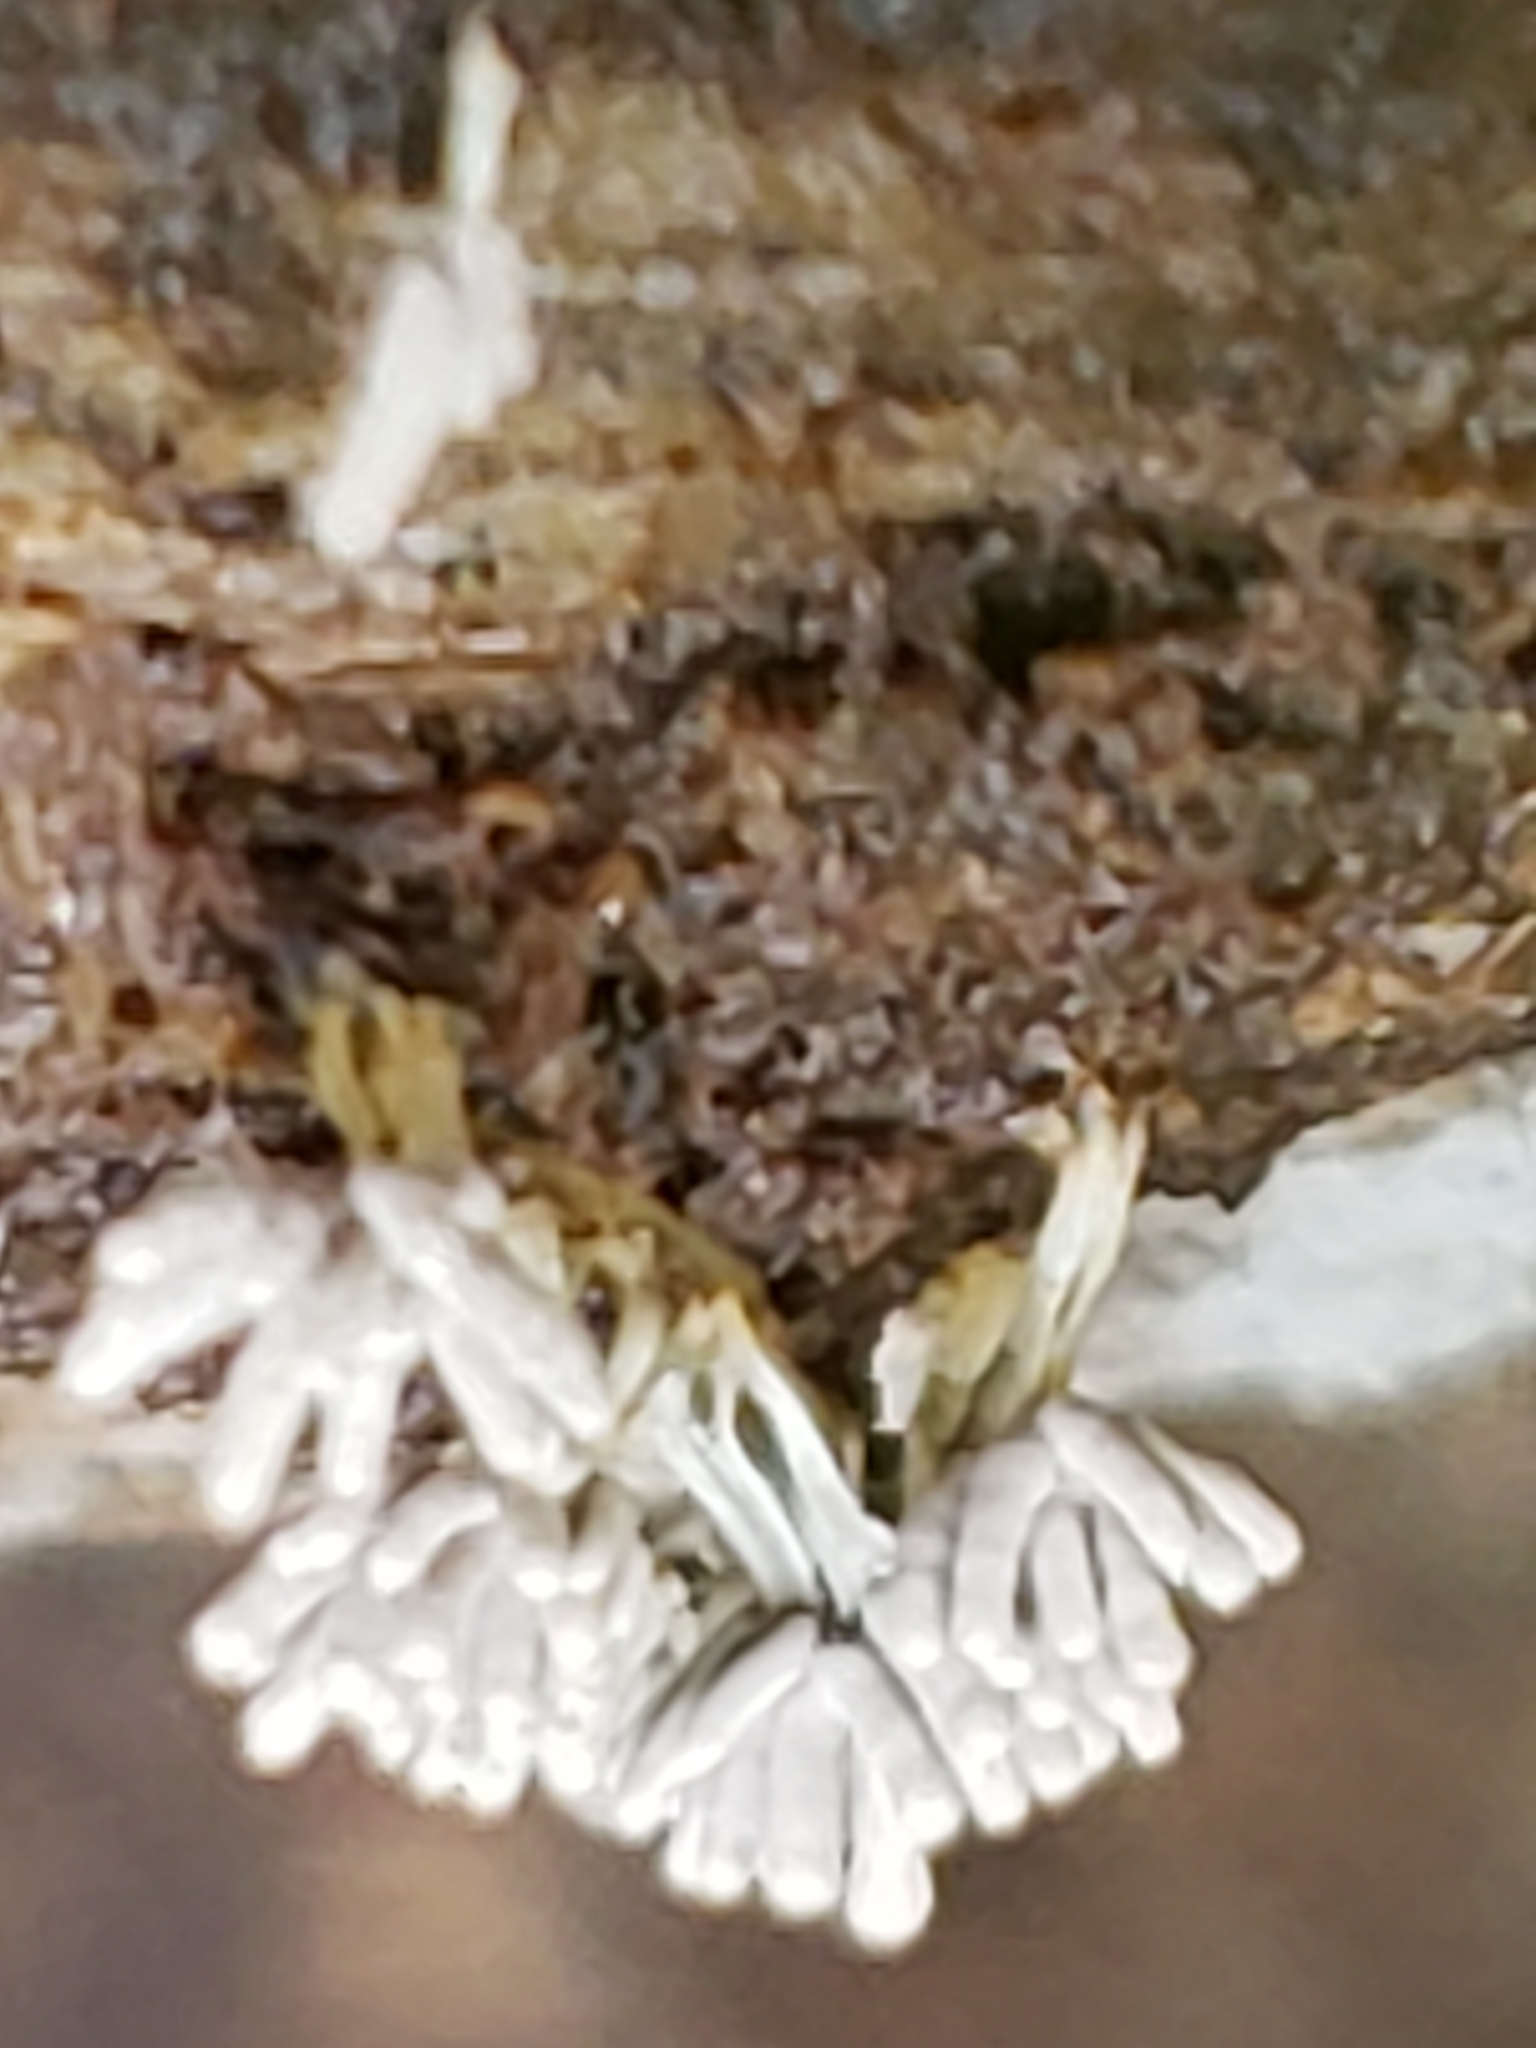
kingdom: Protozoa
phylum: Mycetozoa
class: Myxomycetes
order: Trichiales
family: Arcyriaceae
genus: Arcyria
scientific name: Arcyria cinerea
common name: White carnival candy slime mold
